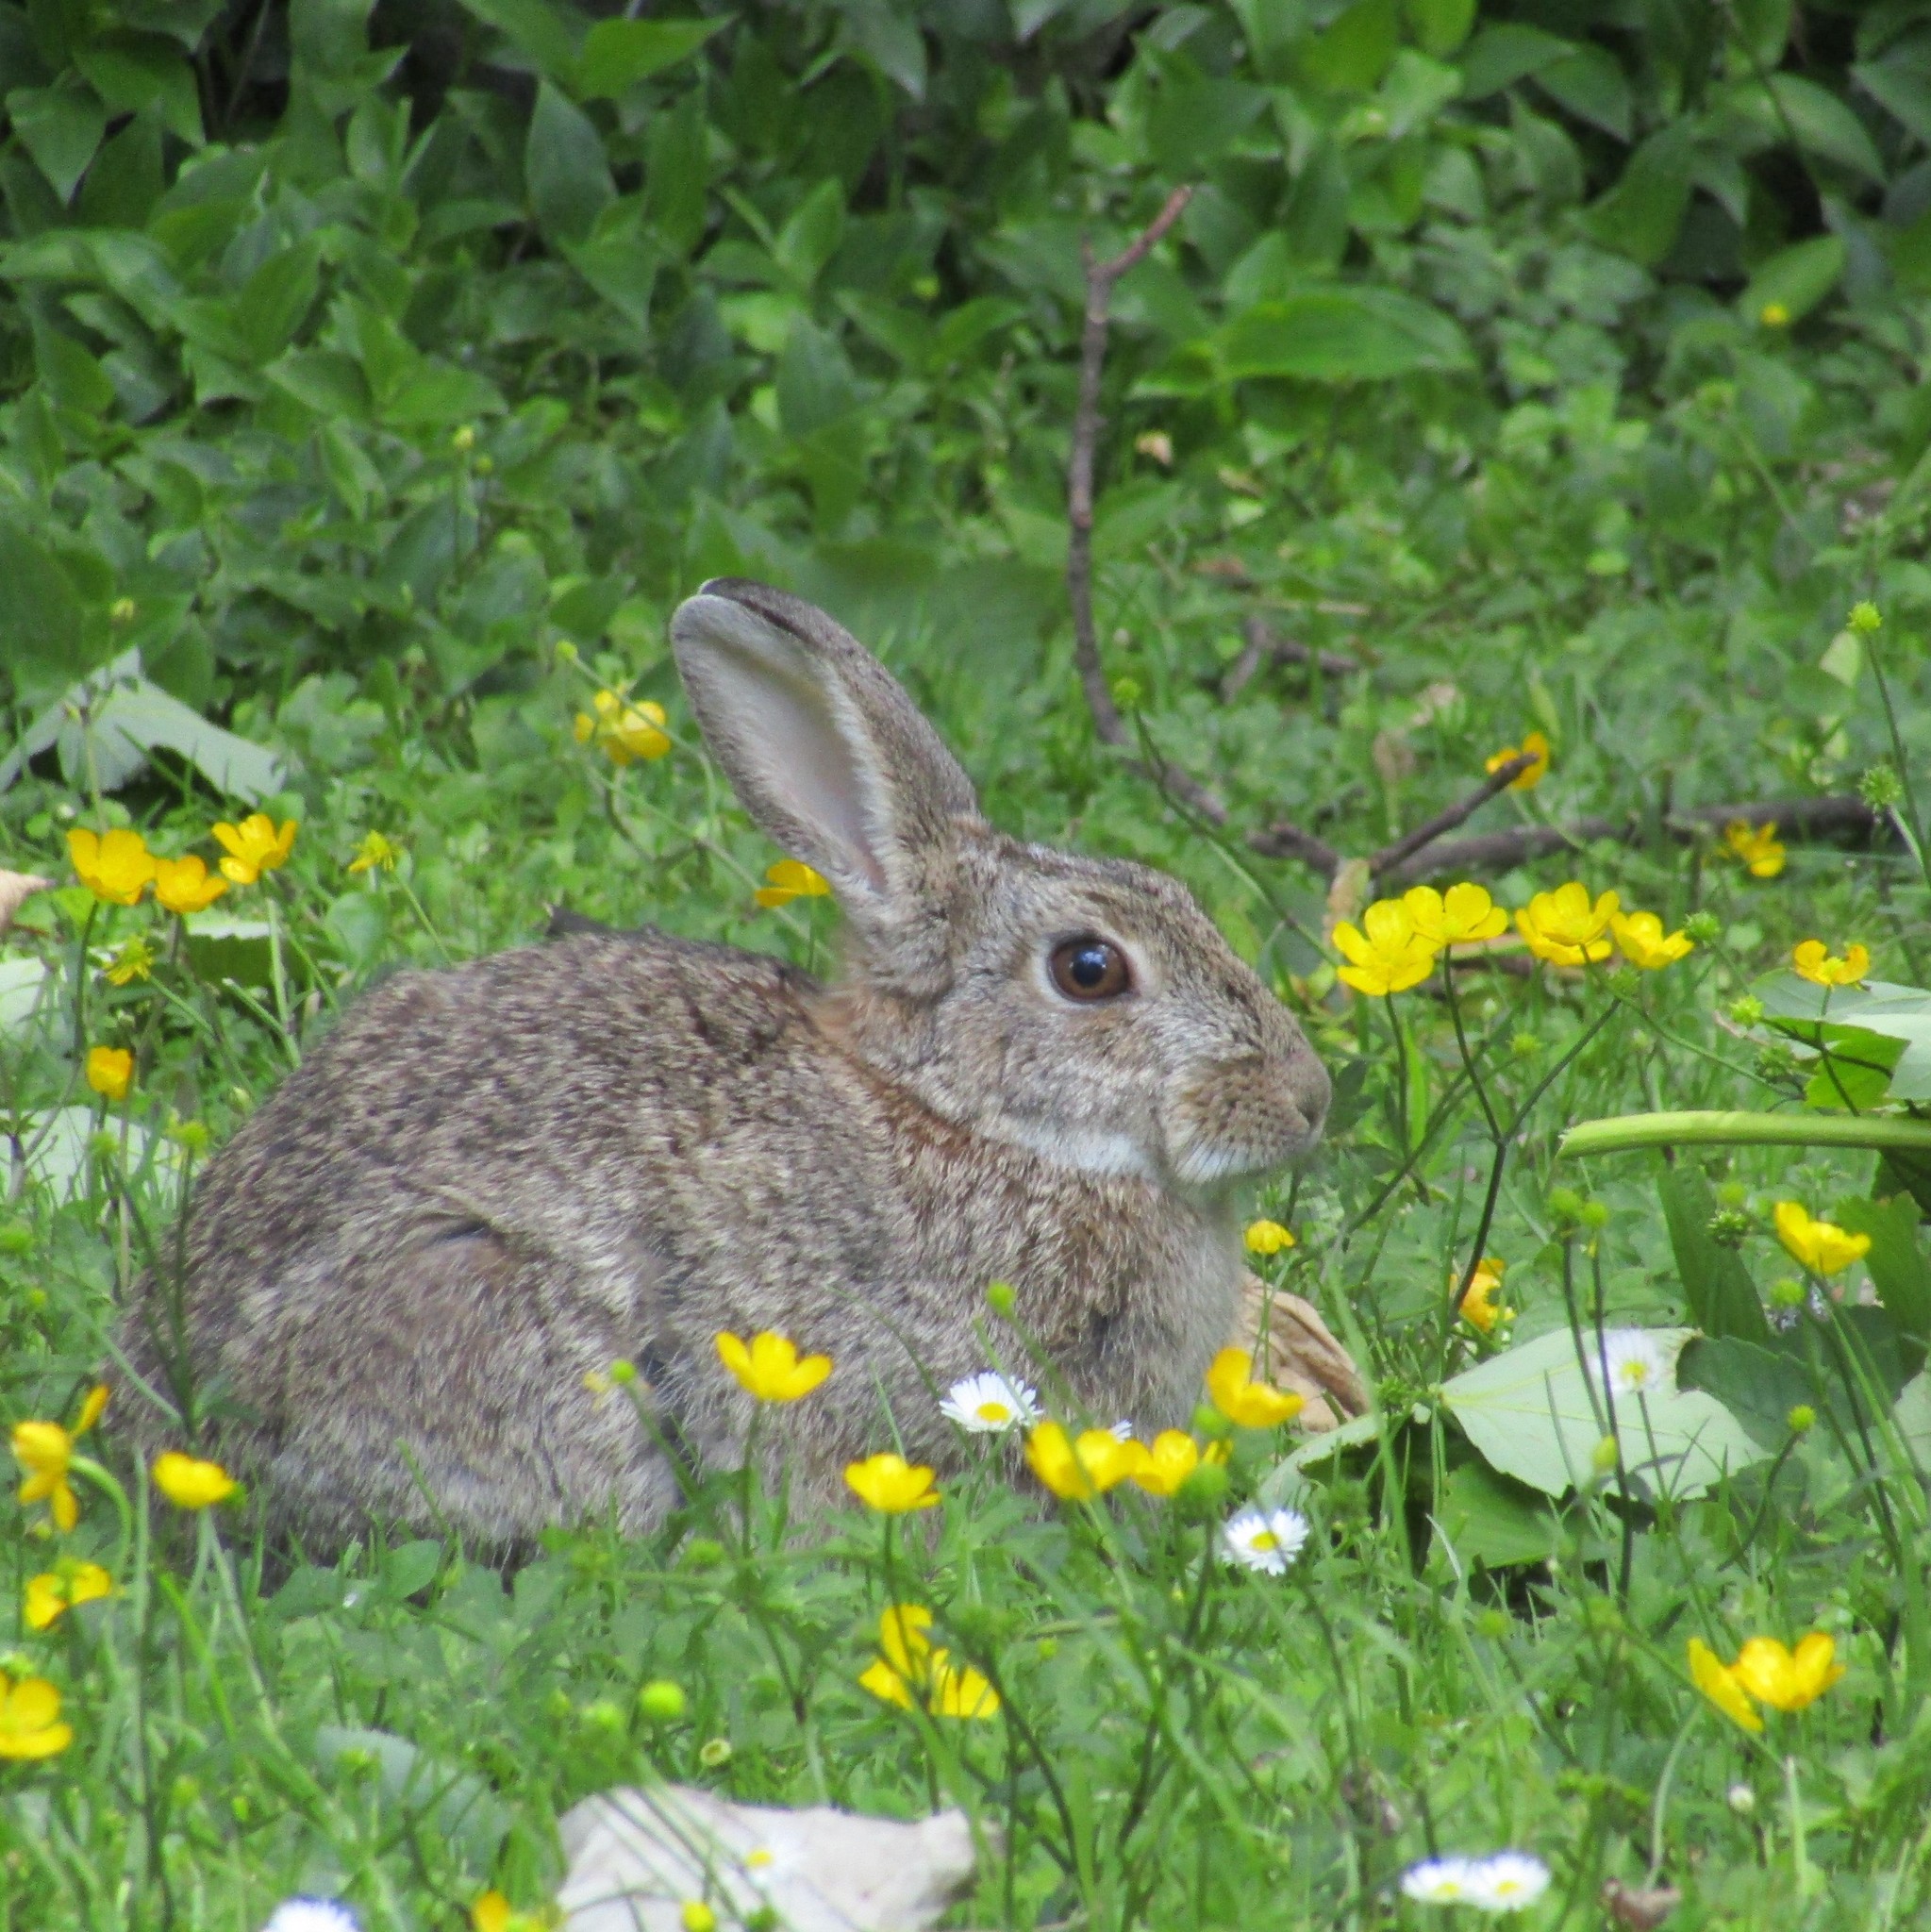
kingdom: Animalia
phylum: Chordata
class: Mammalia
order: Lagomorpha
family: Leporidae
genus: Oryctolagus
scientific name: Oryctolagus cuniculus
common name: European rabbit
